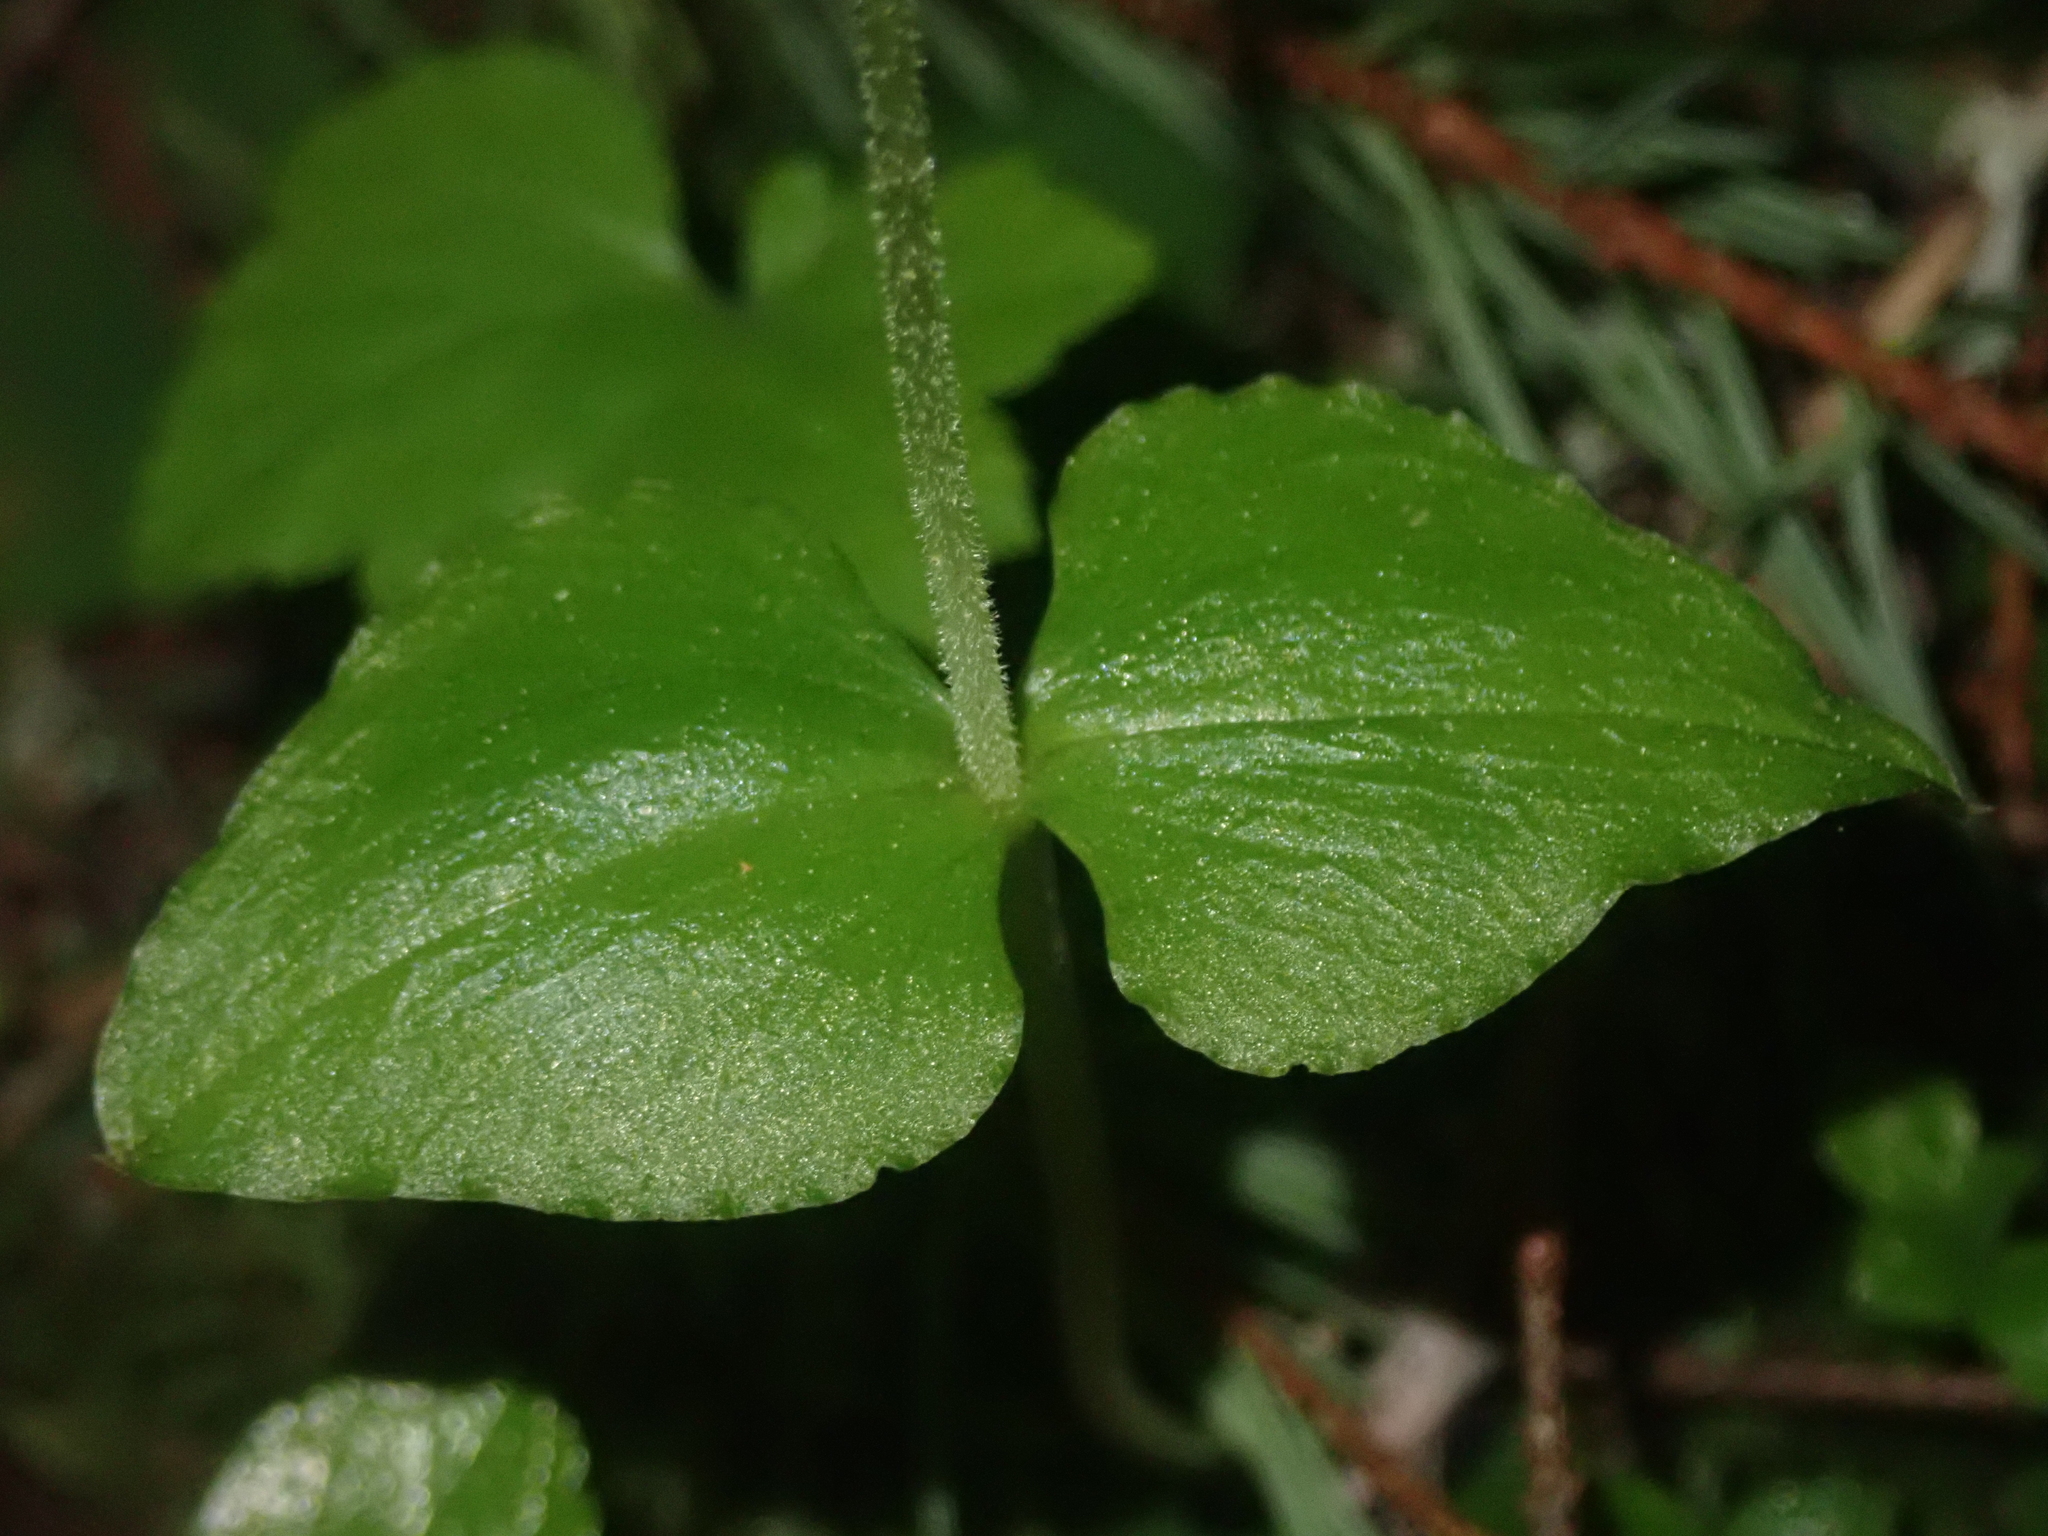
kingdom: Plantae
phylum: Tracheophyta
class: Liliopsida
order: Asparagales
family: Orchidaceae
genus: Neottia
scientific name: Neottia cordata
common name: Lesser twayblade
